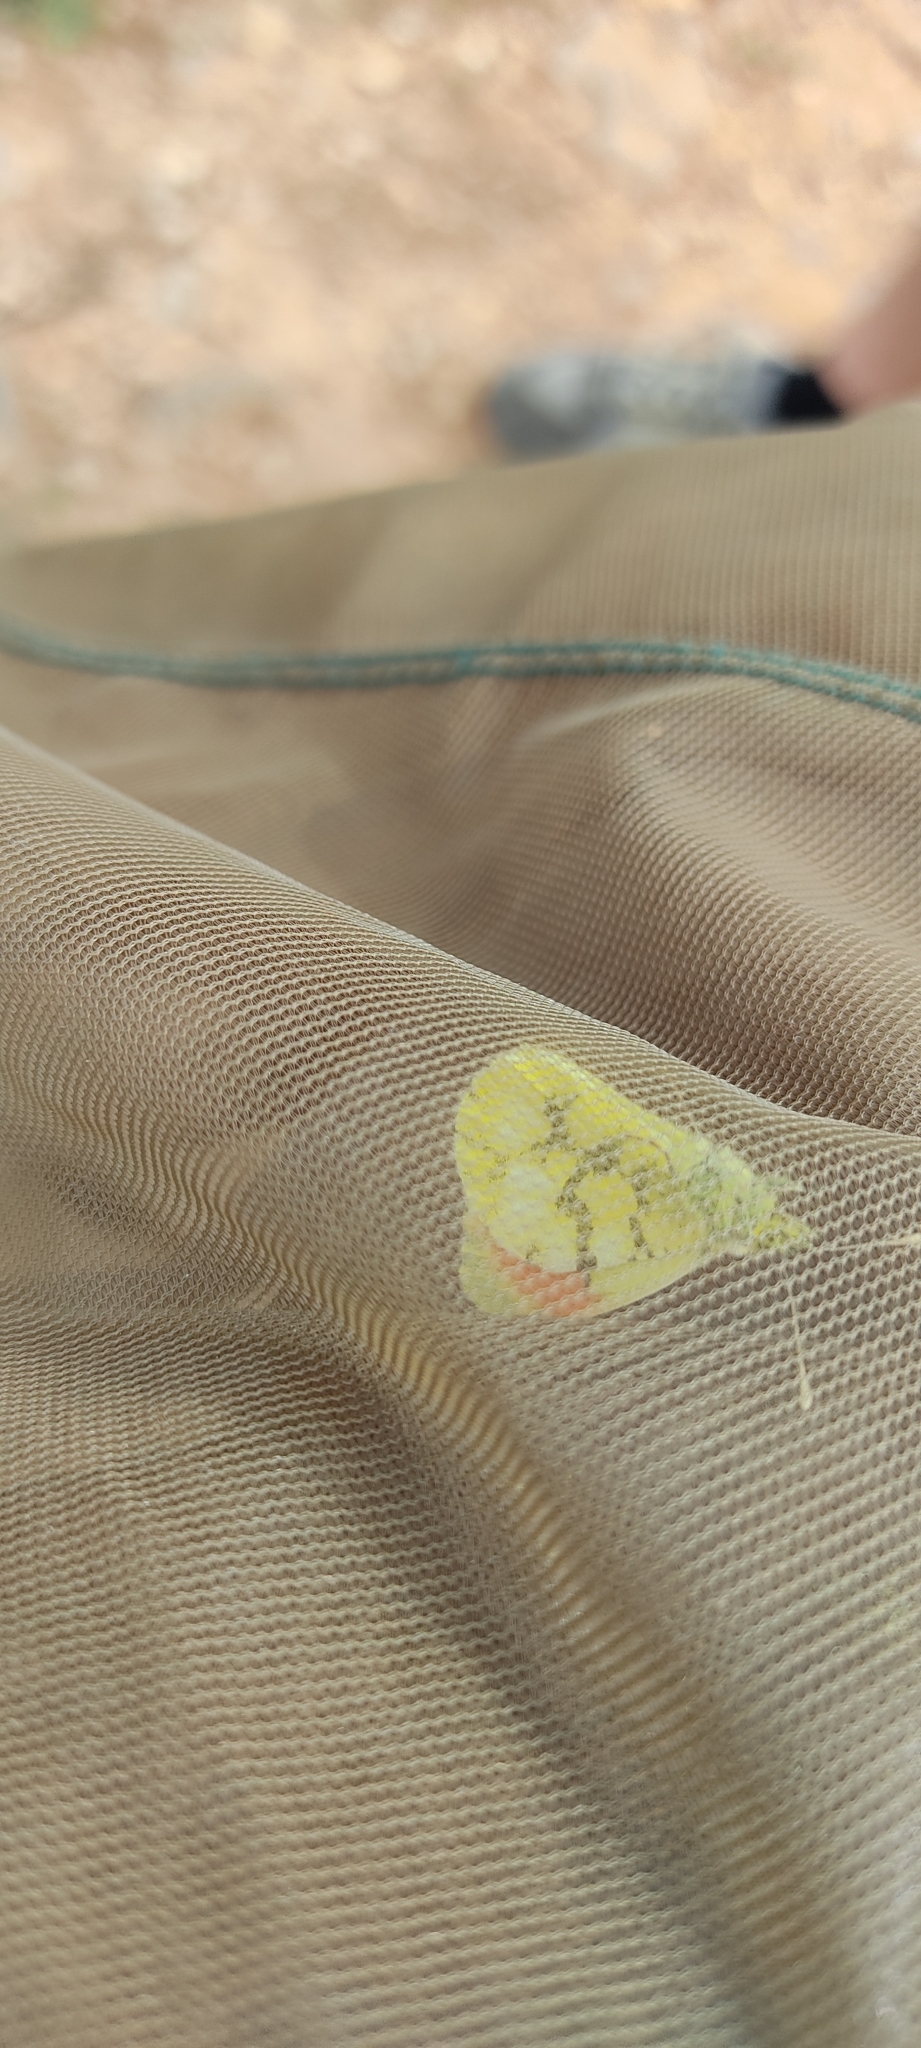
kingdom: Animalia
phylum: Arthropoda
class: Insecta
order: Lepidoptera
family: Pieridae
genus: Anthocharis
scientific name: Anthocharis euphenoides
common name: Provence orange-tip
